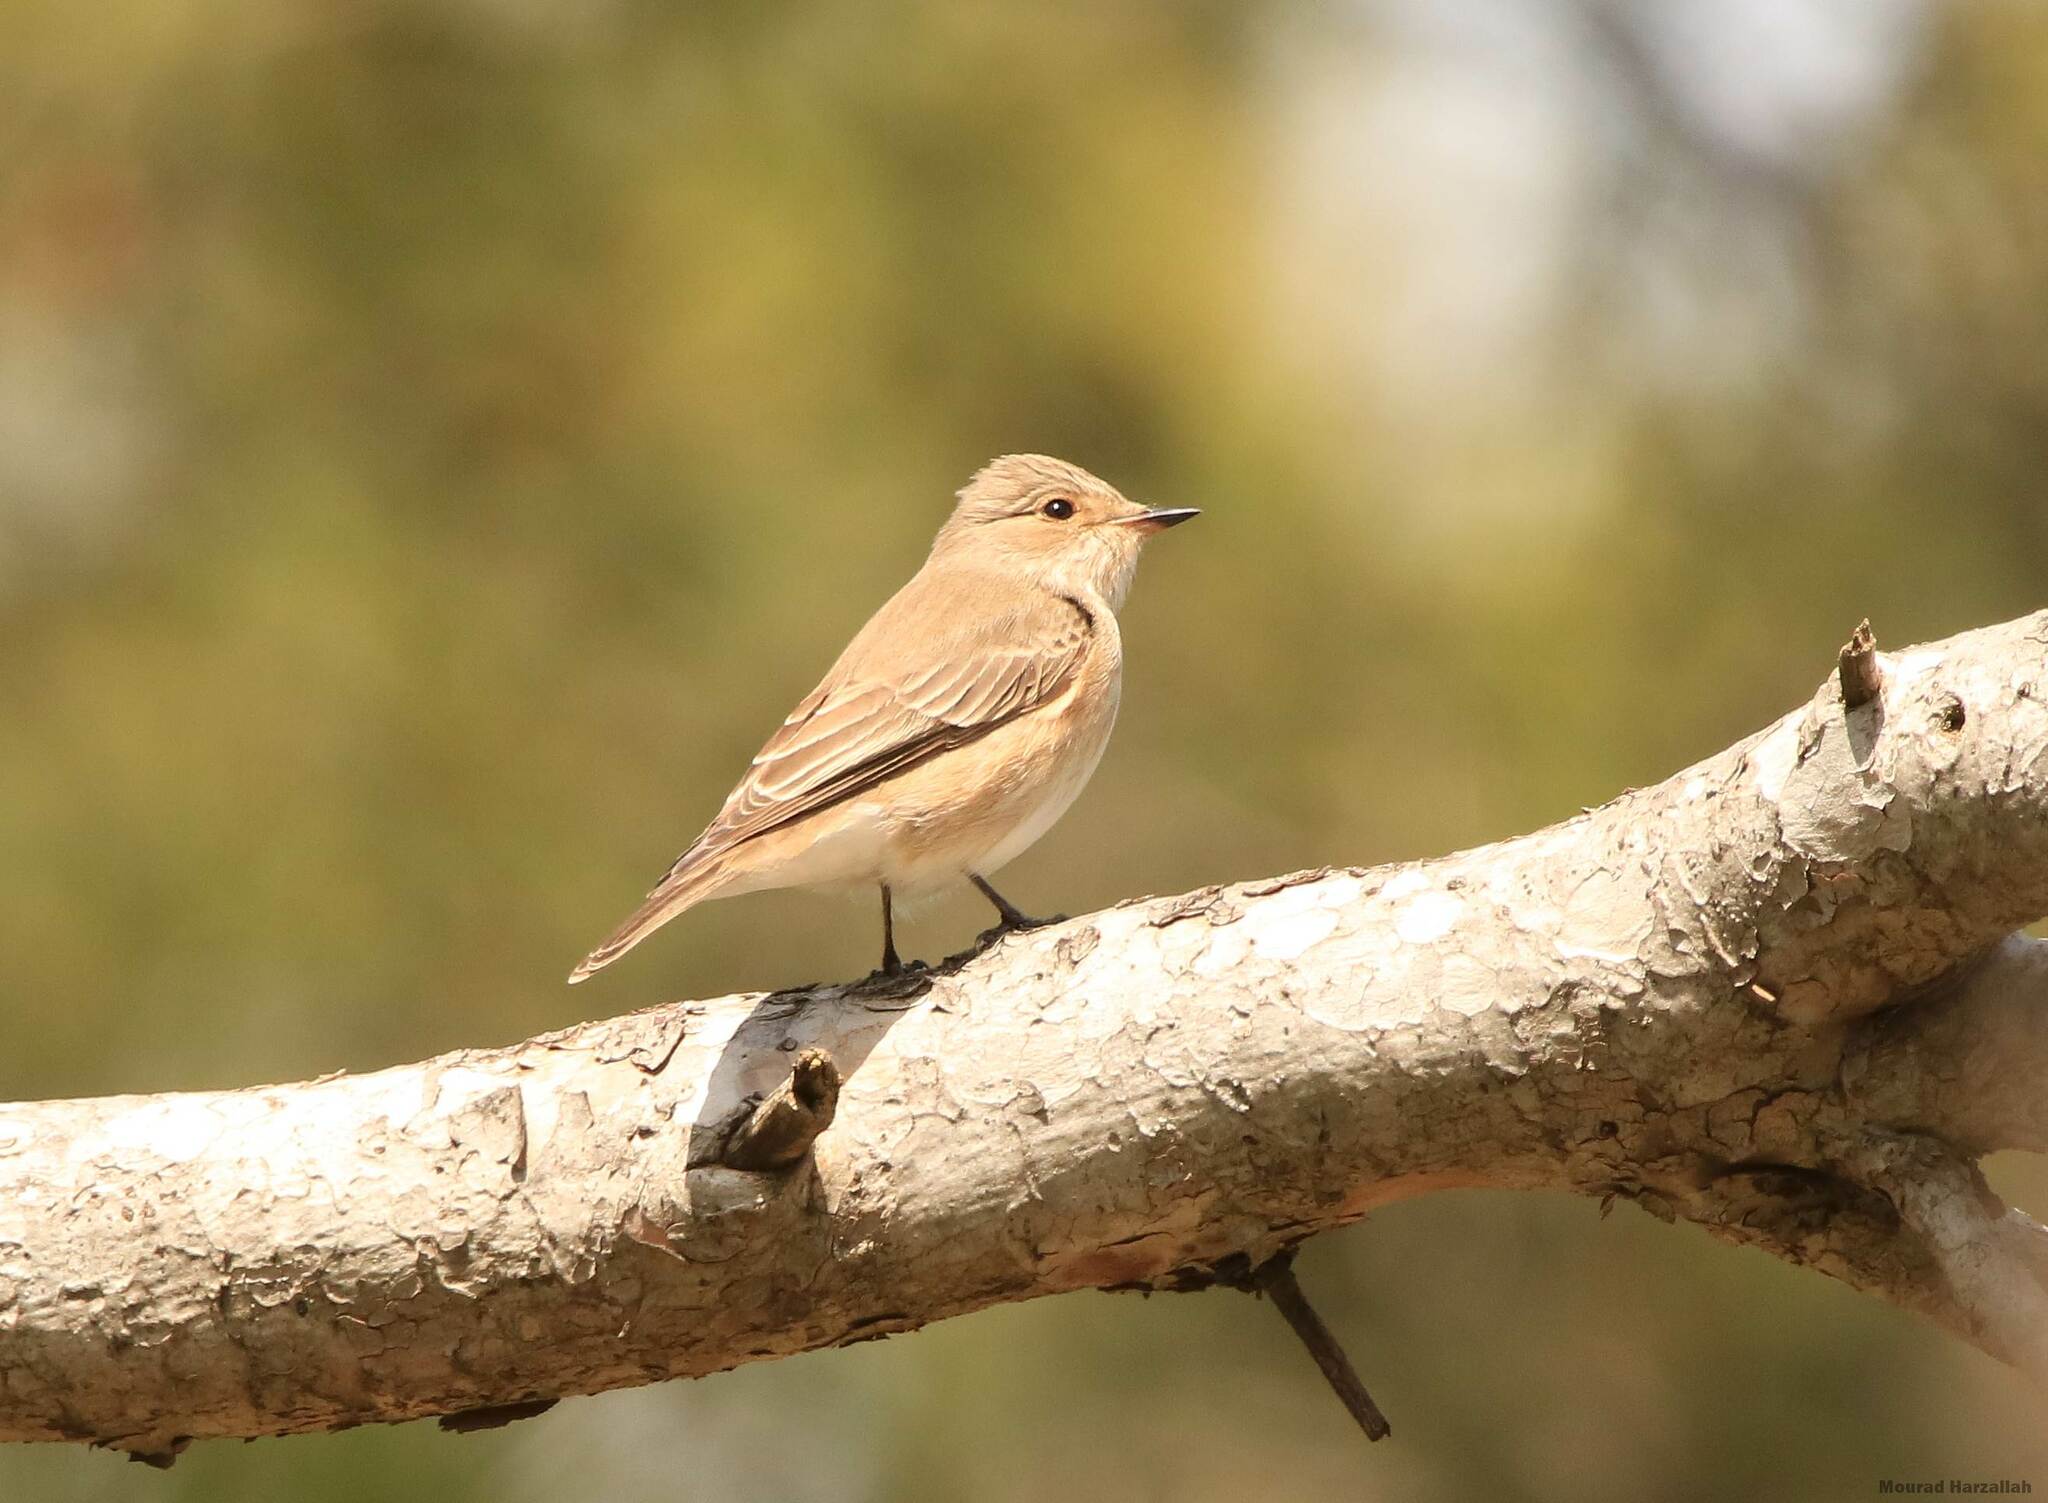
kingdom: Animalia
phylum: Chordata
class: Aves
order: Passeriformes
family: Muscicapidae
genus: Muscicapa
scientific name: Muscicapa striata
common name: Spotted flycatcher
